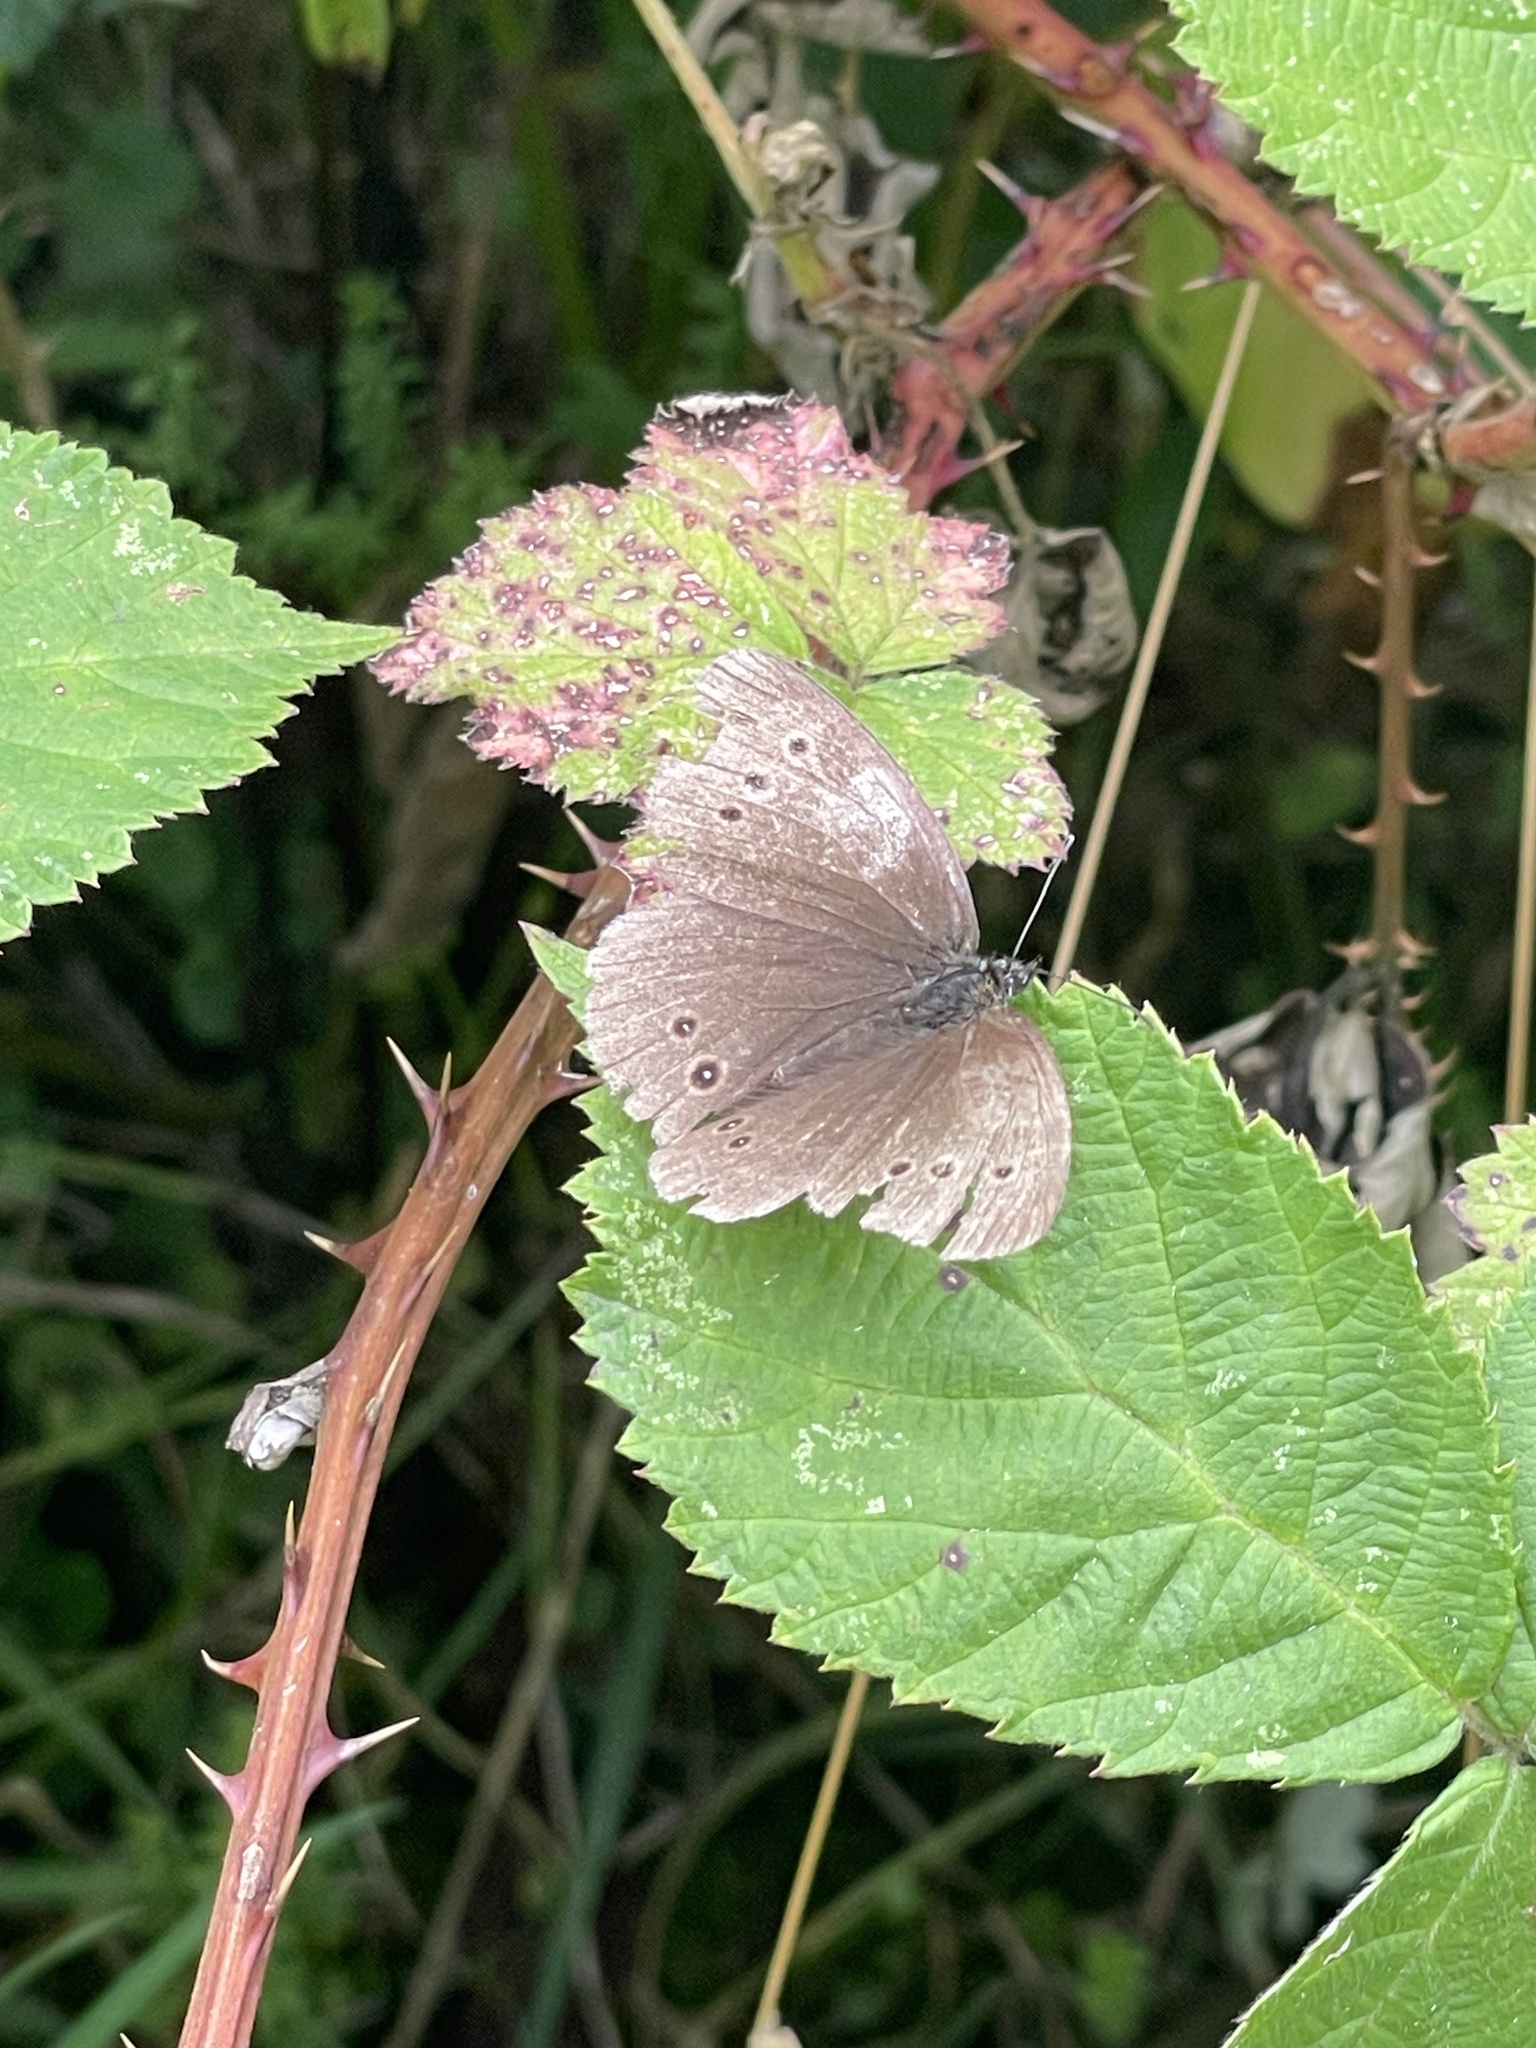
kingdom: Animalia
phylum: Arthropoda
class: Insecta
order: Lepidoptera
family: Nymphalidae
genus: Aphantopus
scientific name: Aphantopus hyperantus
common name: Ringlet
